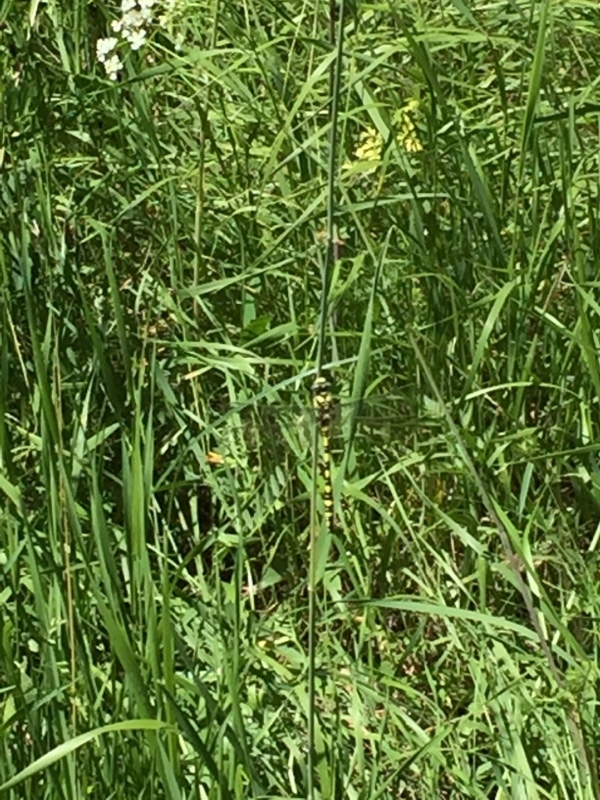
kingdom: Animalia
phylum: Arthropoda
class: Insecta
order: Odonata
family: Cordulegastridae
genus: Cordulegaster
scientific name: Cordulegaster charpentieri
